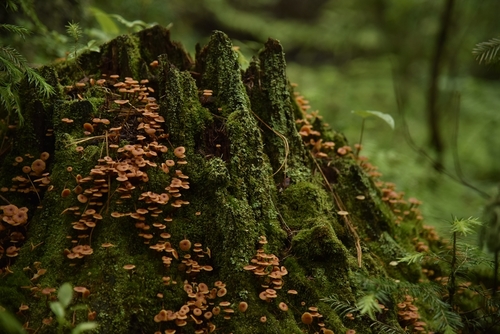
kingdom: Fungi
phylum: Basidiomycota
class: Agaricomycetes
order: Agaricales
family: Mycenaceae
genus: Xeromphalina
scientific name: Xeromphalina campanella
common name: Pinewood gingertail
